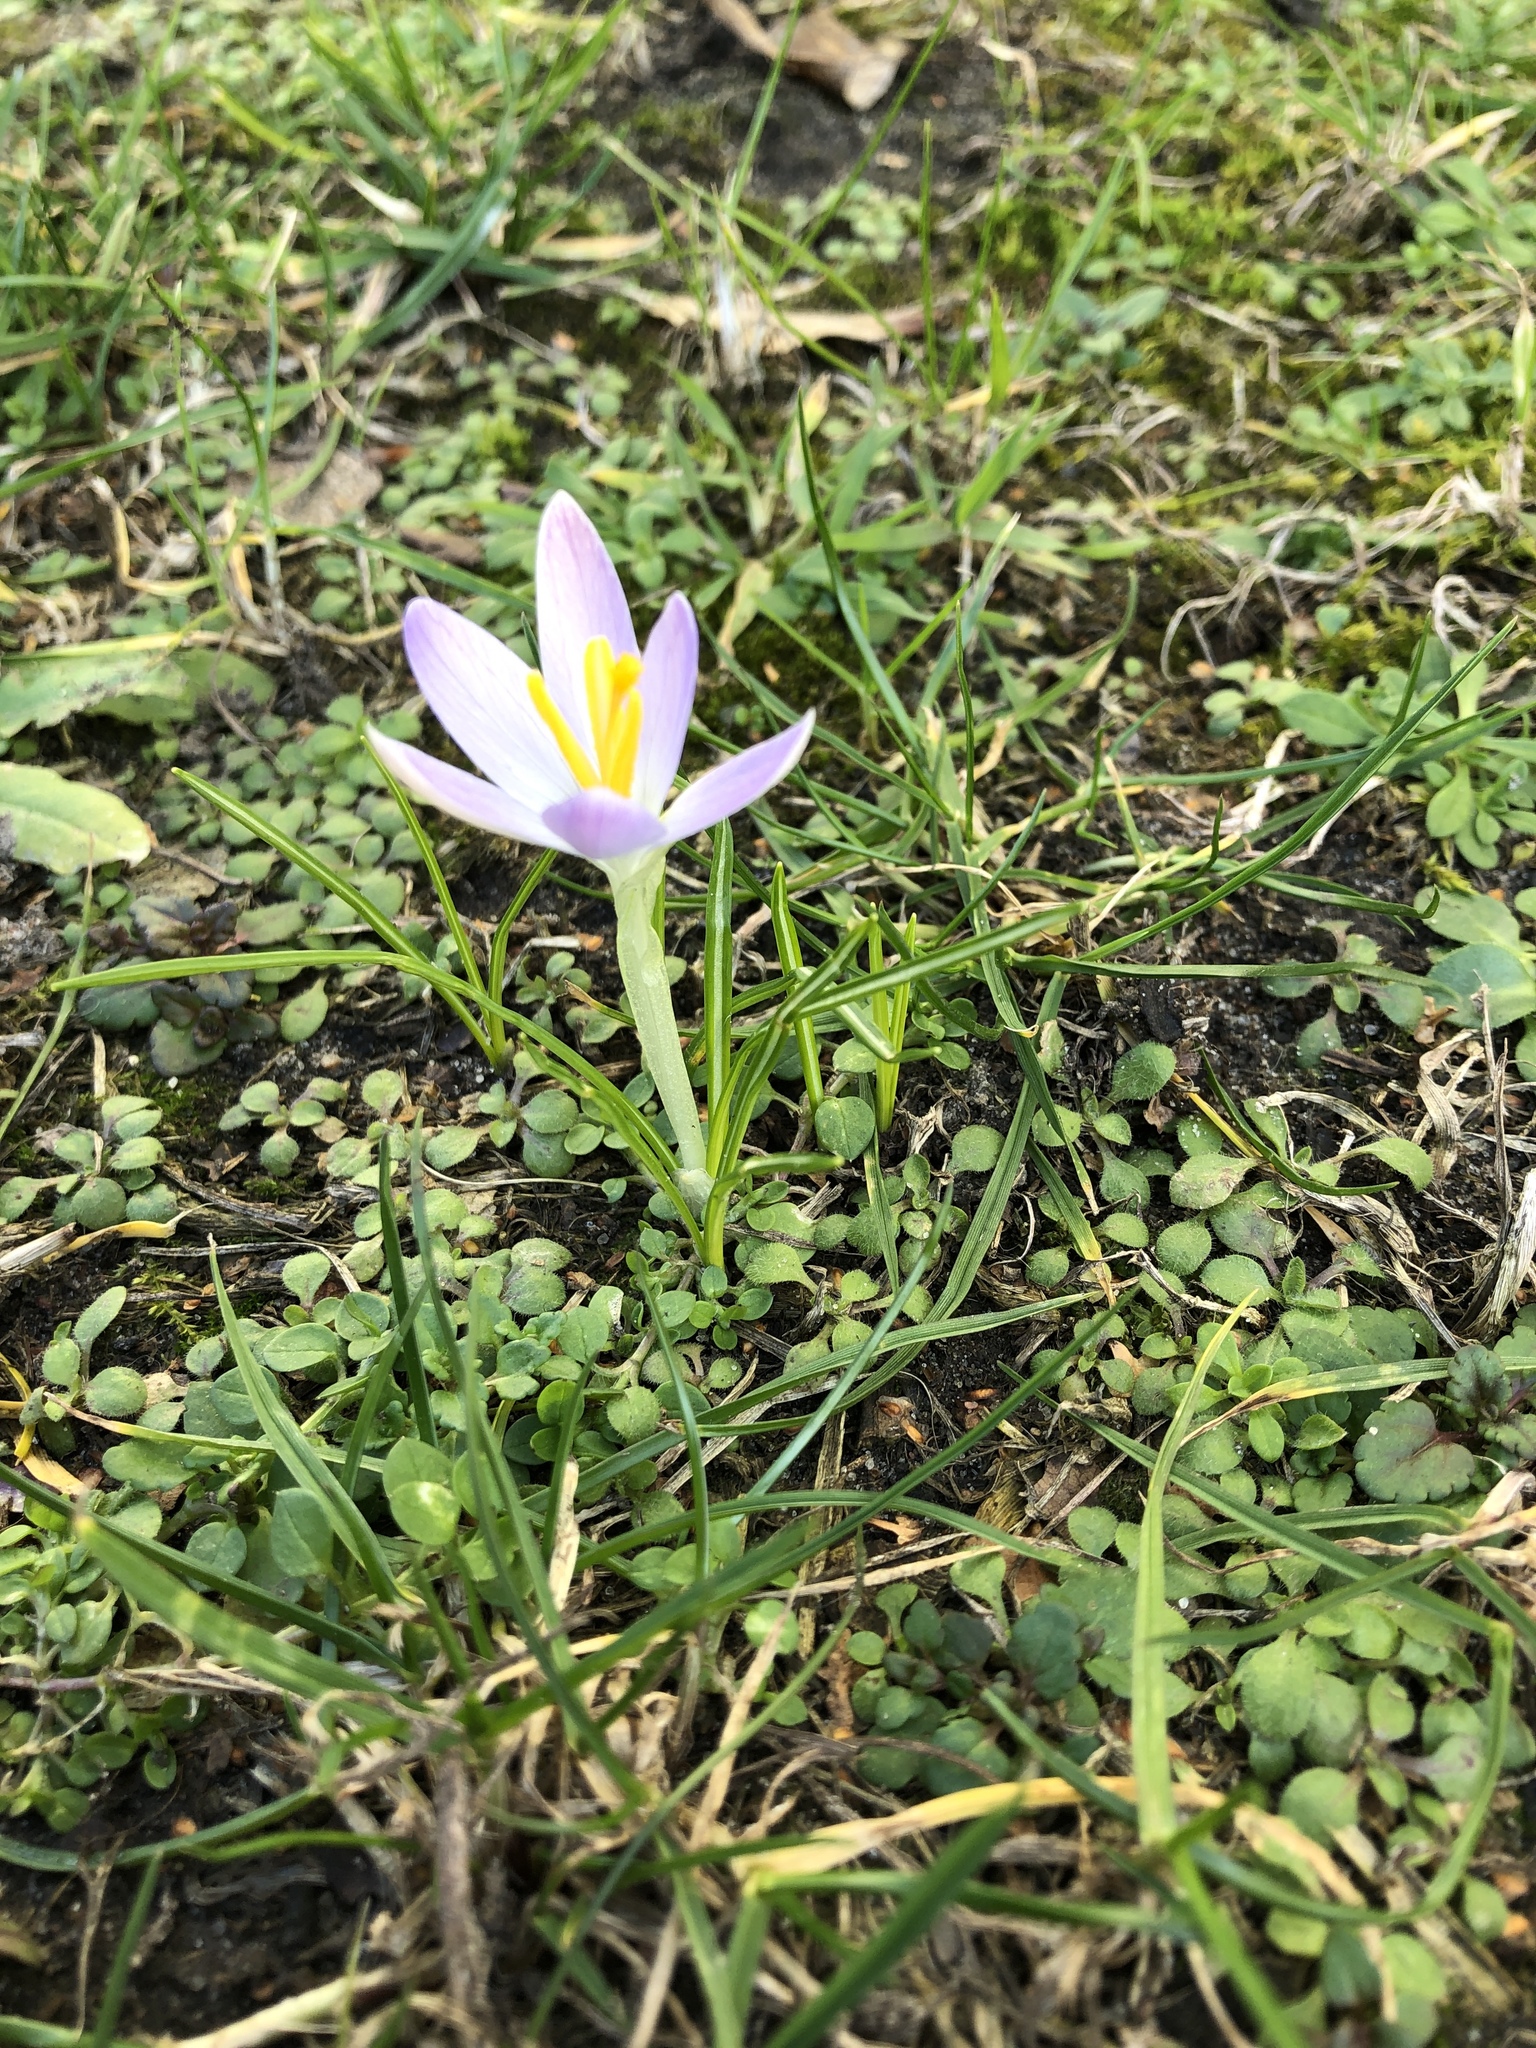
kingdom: Plantae
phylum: Tracheophyta
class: Liliopsida
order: Asparagales
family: Iridaceae
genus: Crocus
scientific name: Crocus tommasinianus
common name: Early crocus
